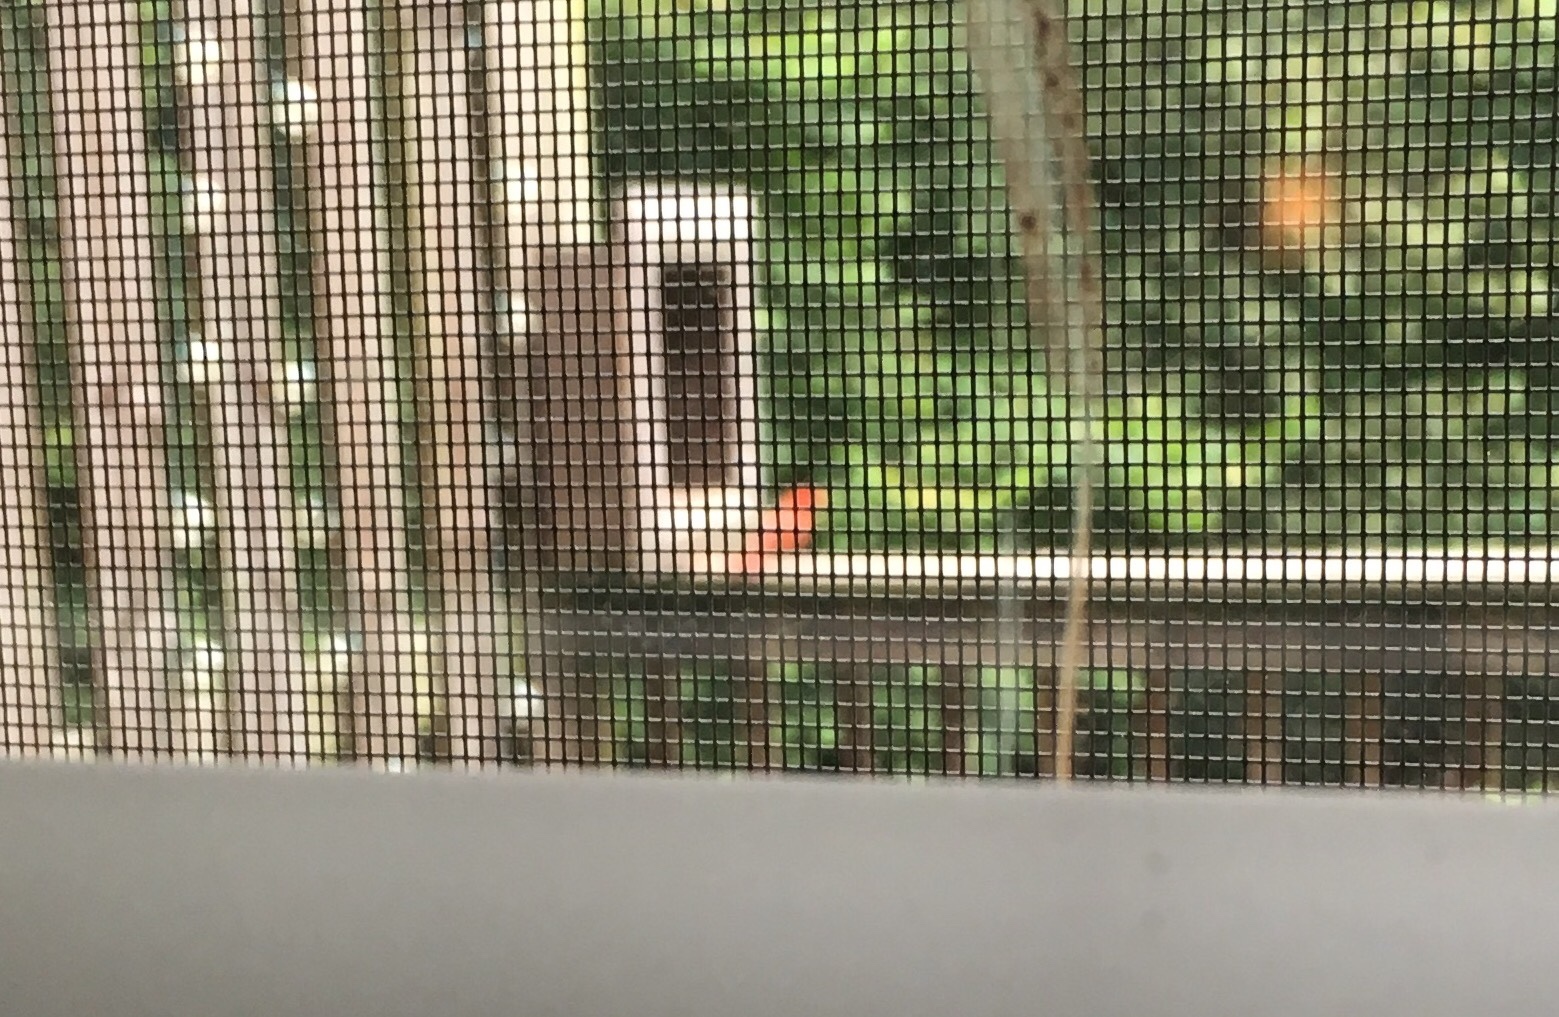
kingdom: Animalia
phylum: Chordata
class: Aves
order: Passeriformes
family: Cardinalidae
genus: Cardinalis
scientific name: Cardinalis cardinalis
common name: Northern cardinal
